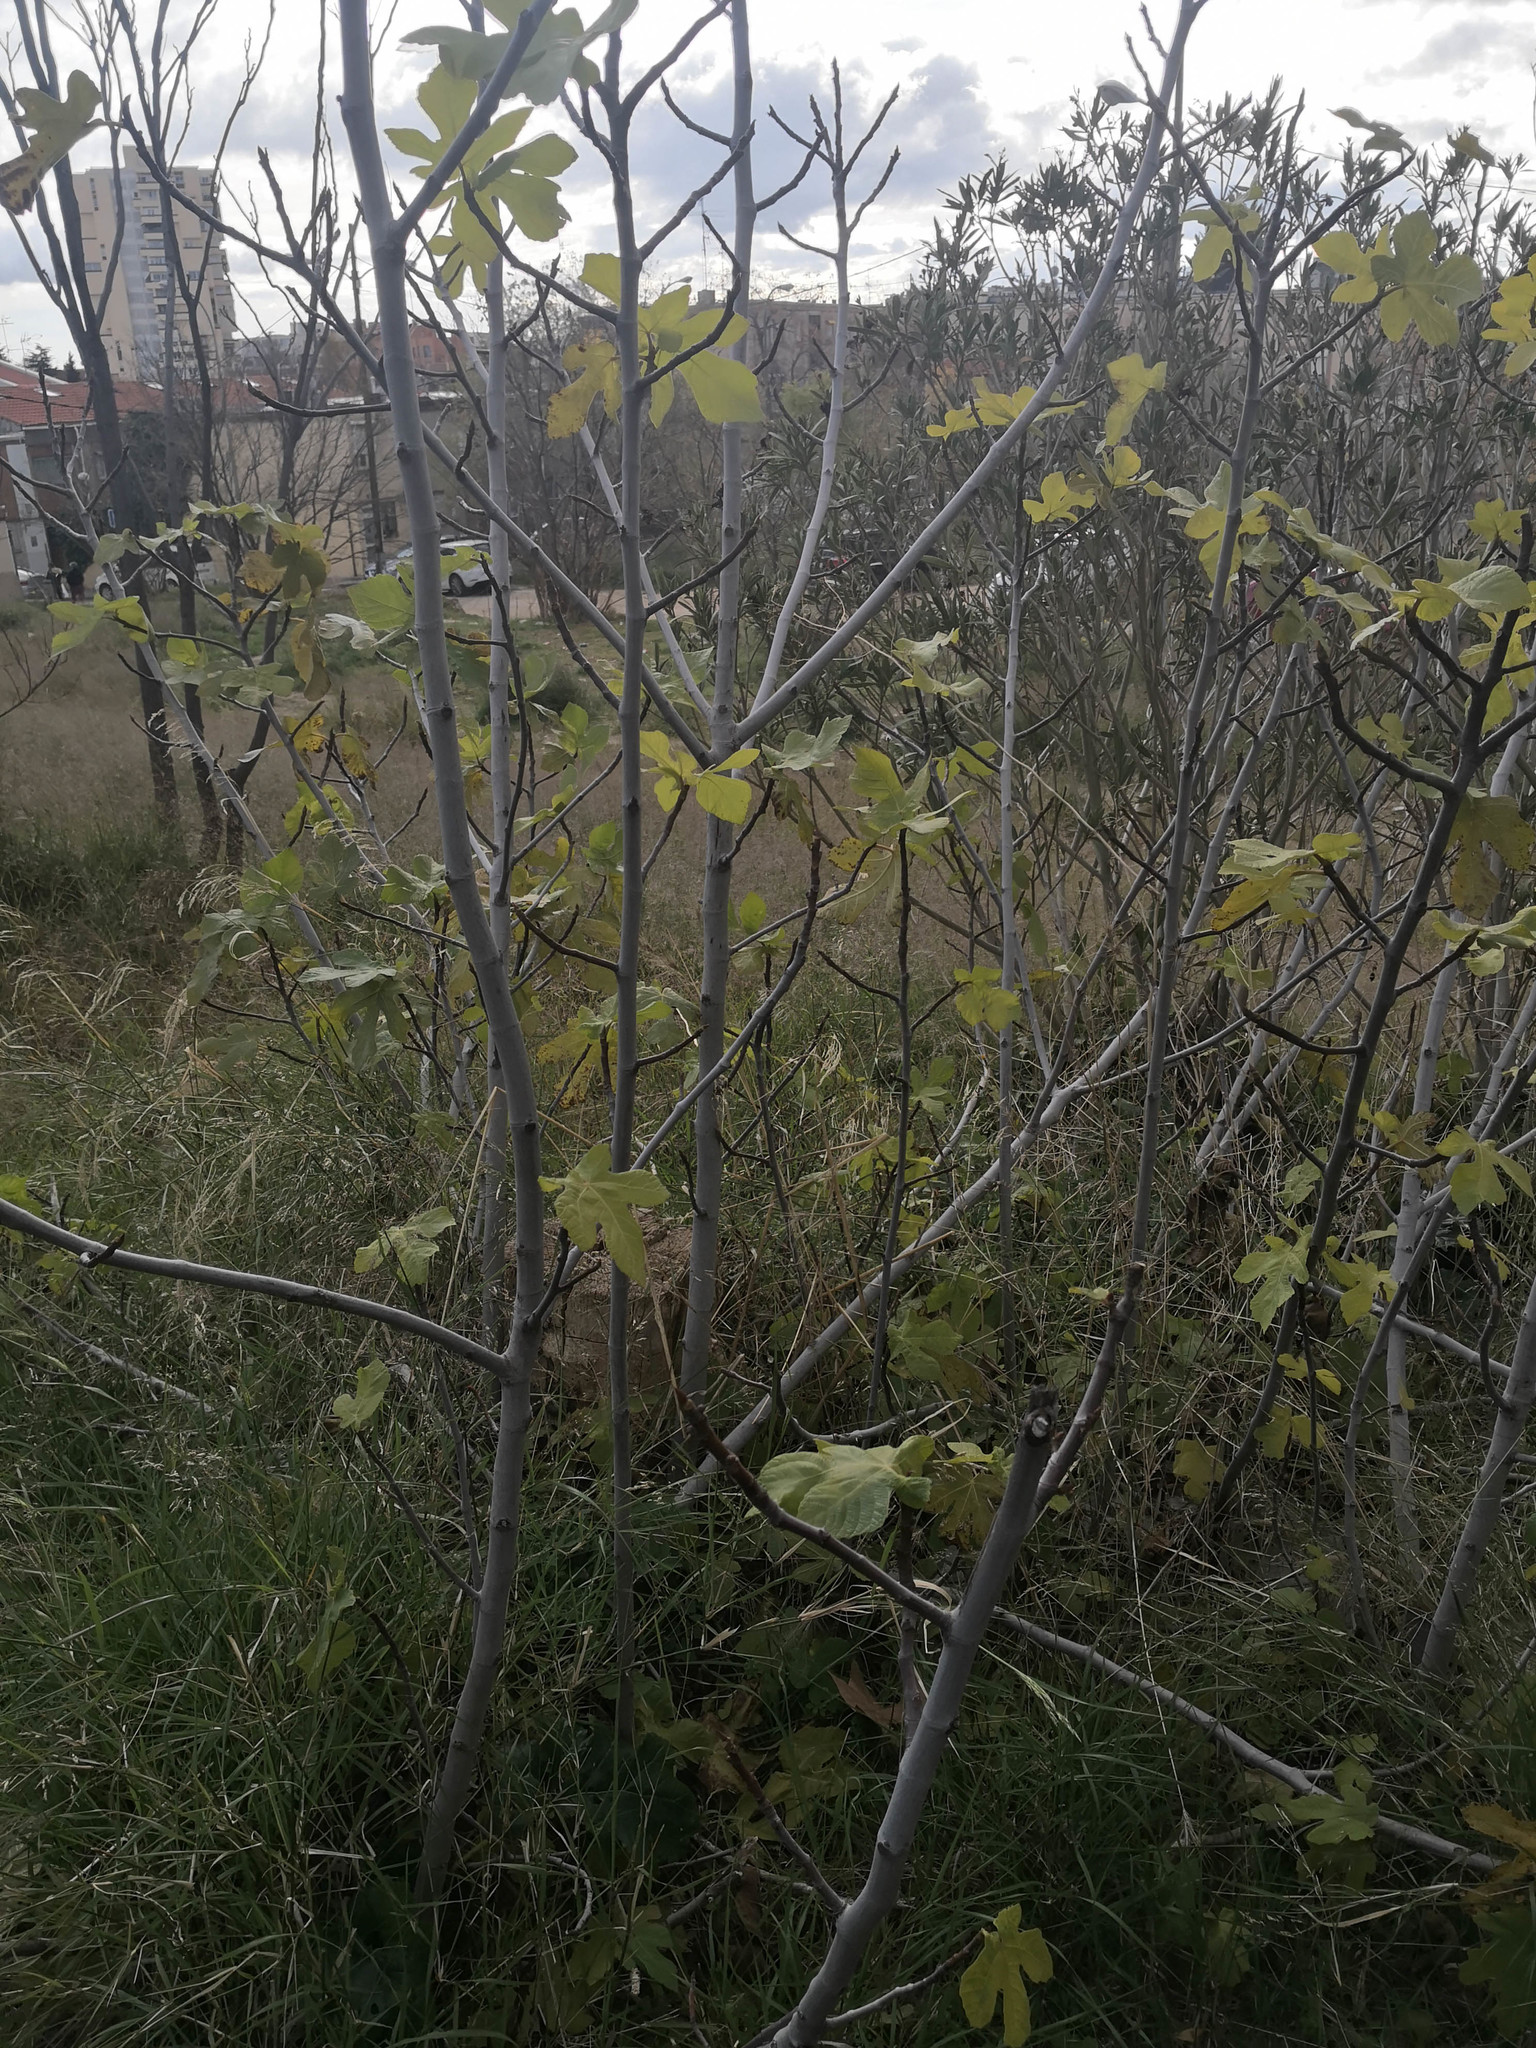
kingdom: Plantae
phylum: Tracheophyta
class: Magnoliopsida
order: Rosales
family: Moraceae
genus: Ficus
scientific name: Ficus carica
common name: Fig
